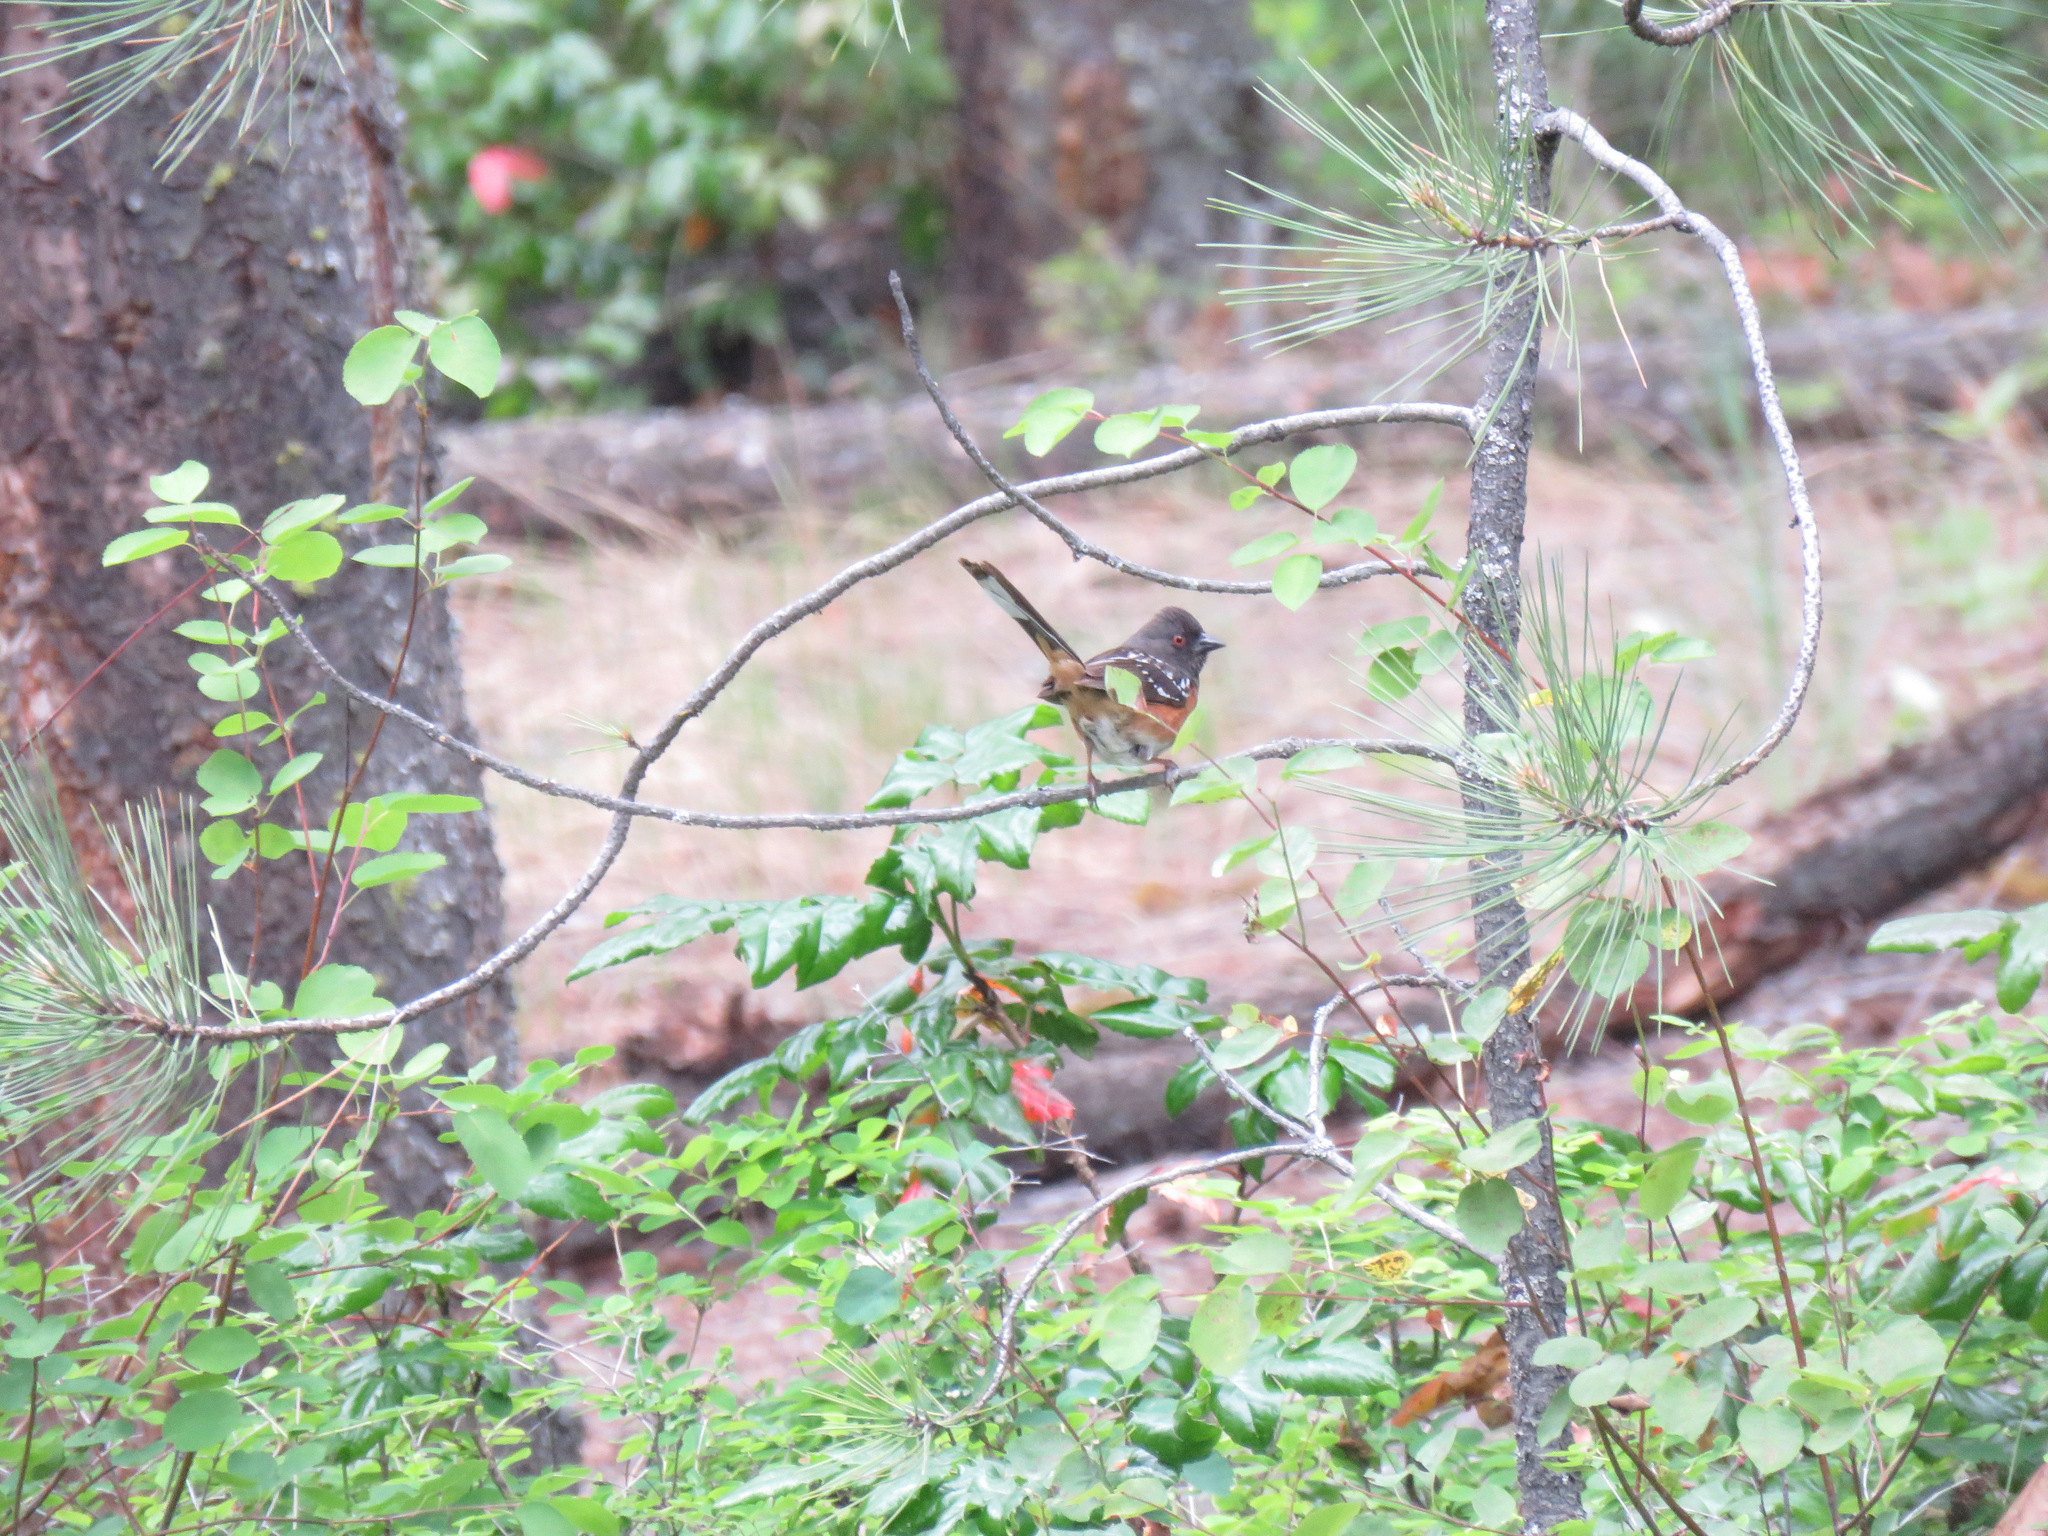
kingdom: Animalia
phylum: Chordata
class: Aves
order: Passeriformes
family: Passerellidae
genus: Pipilo
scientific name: Pipilo maculatus
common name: Spotted towhee
